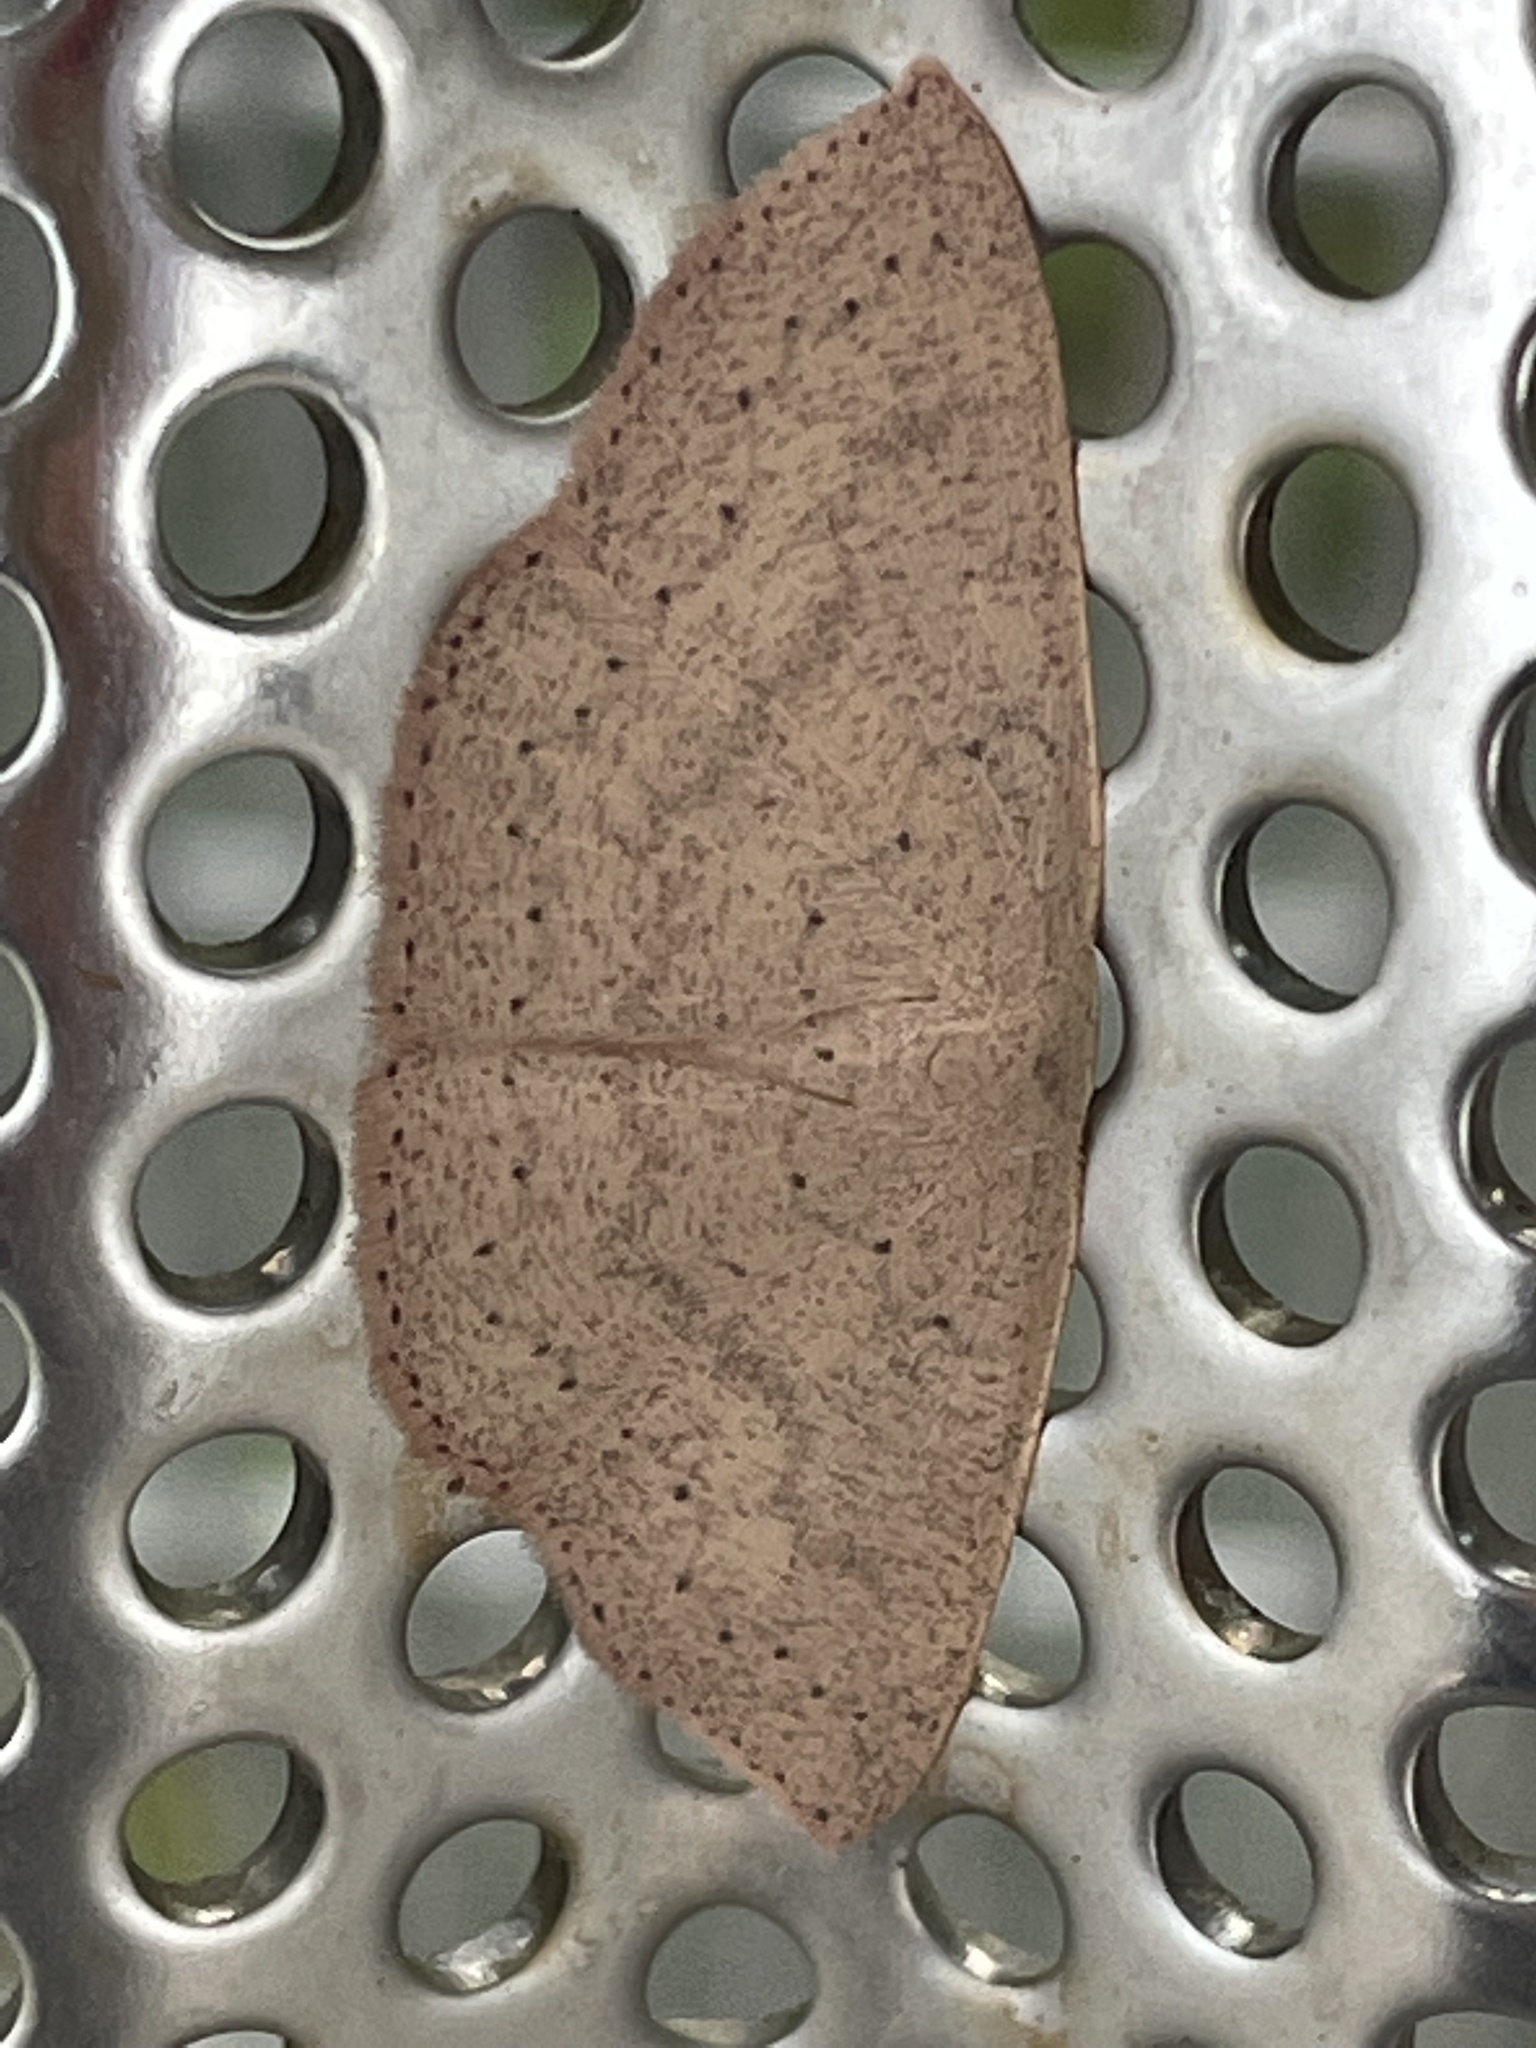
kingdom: Animalia
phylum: Arthropoda
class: Insecta
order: Lepidoptera
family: Geometridae
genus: Cyclophora
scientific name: Cyclophora obstataria
